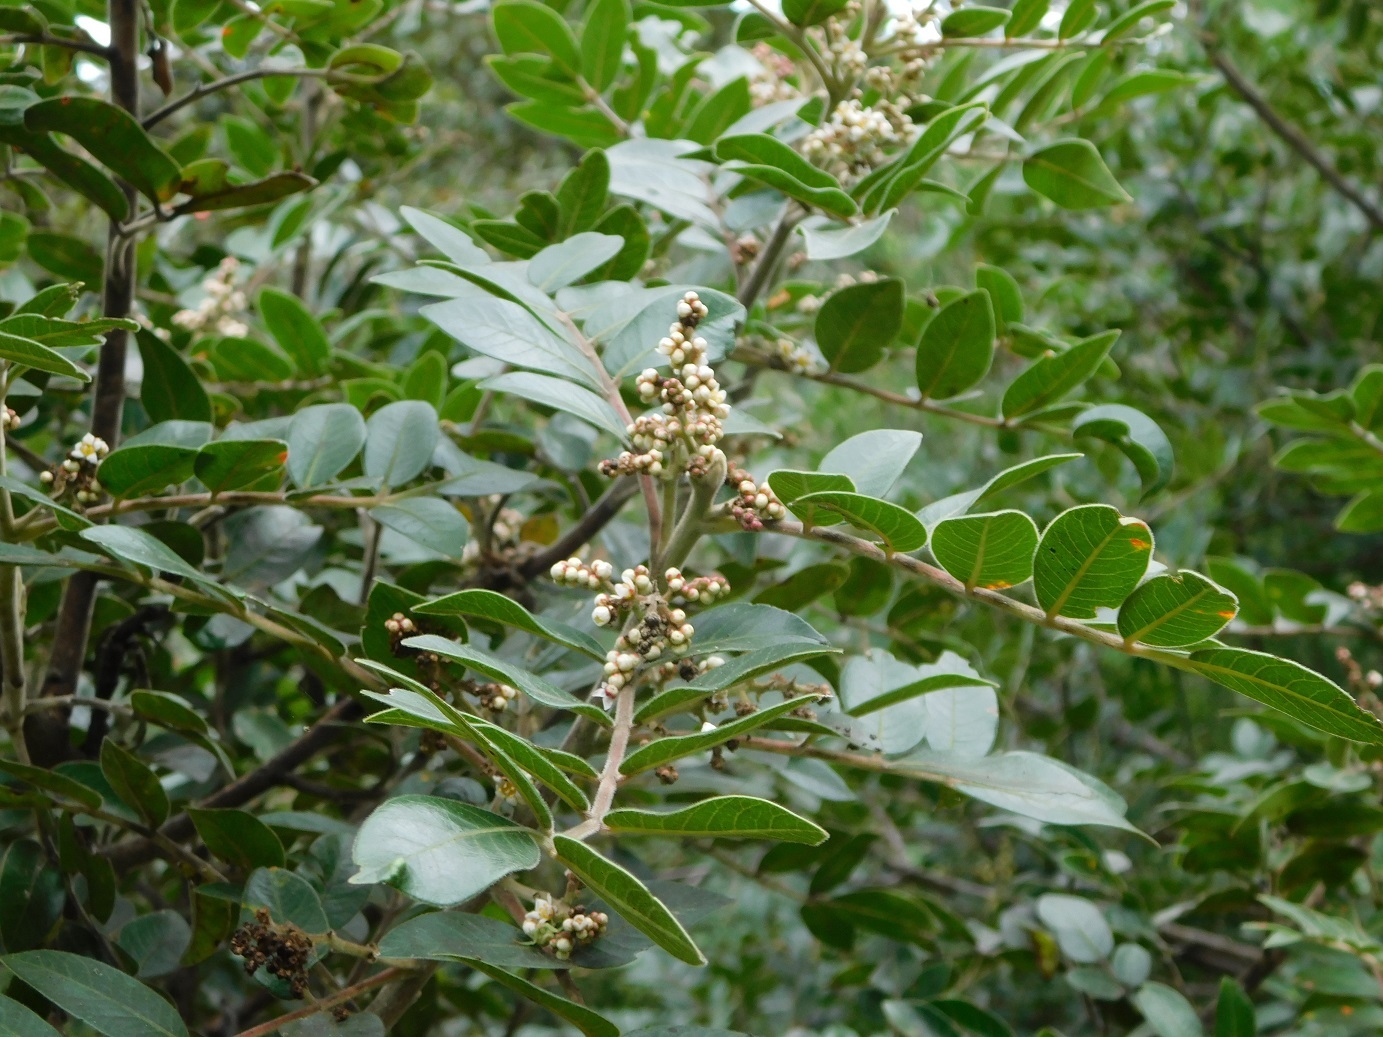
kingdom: Plantae
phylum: Tracheophyta
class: Magnoliopsida
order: Sapindales
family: Anacardiaceae
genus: Rhus
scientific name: Rhus schiedeana
